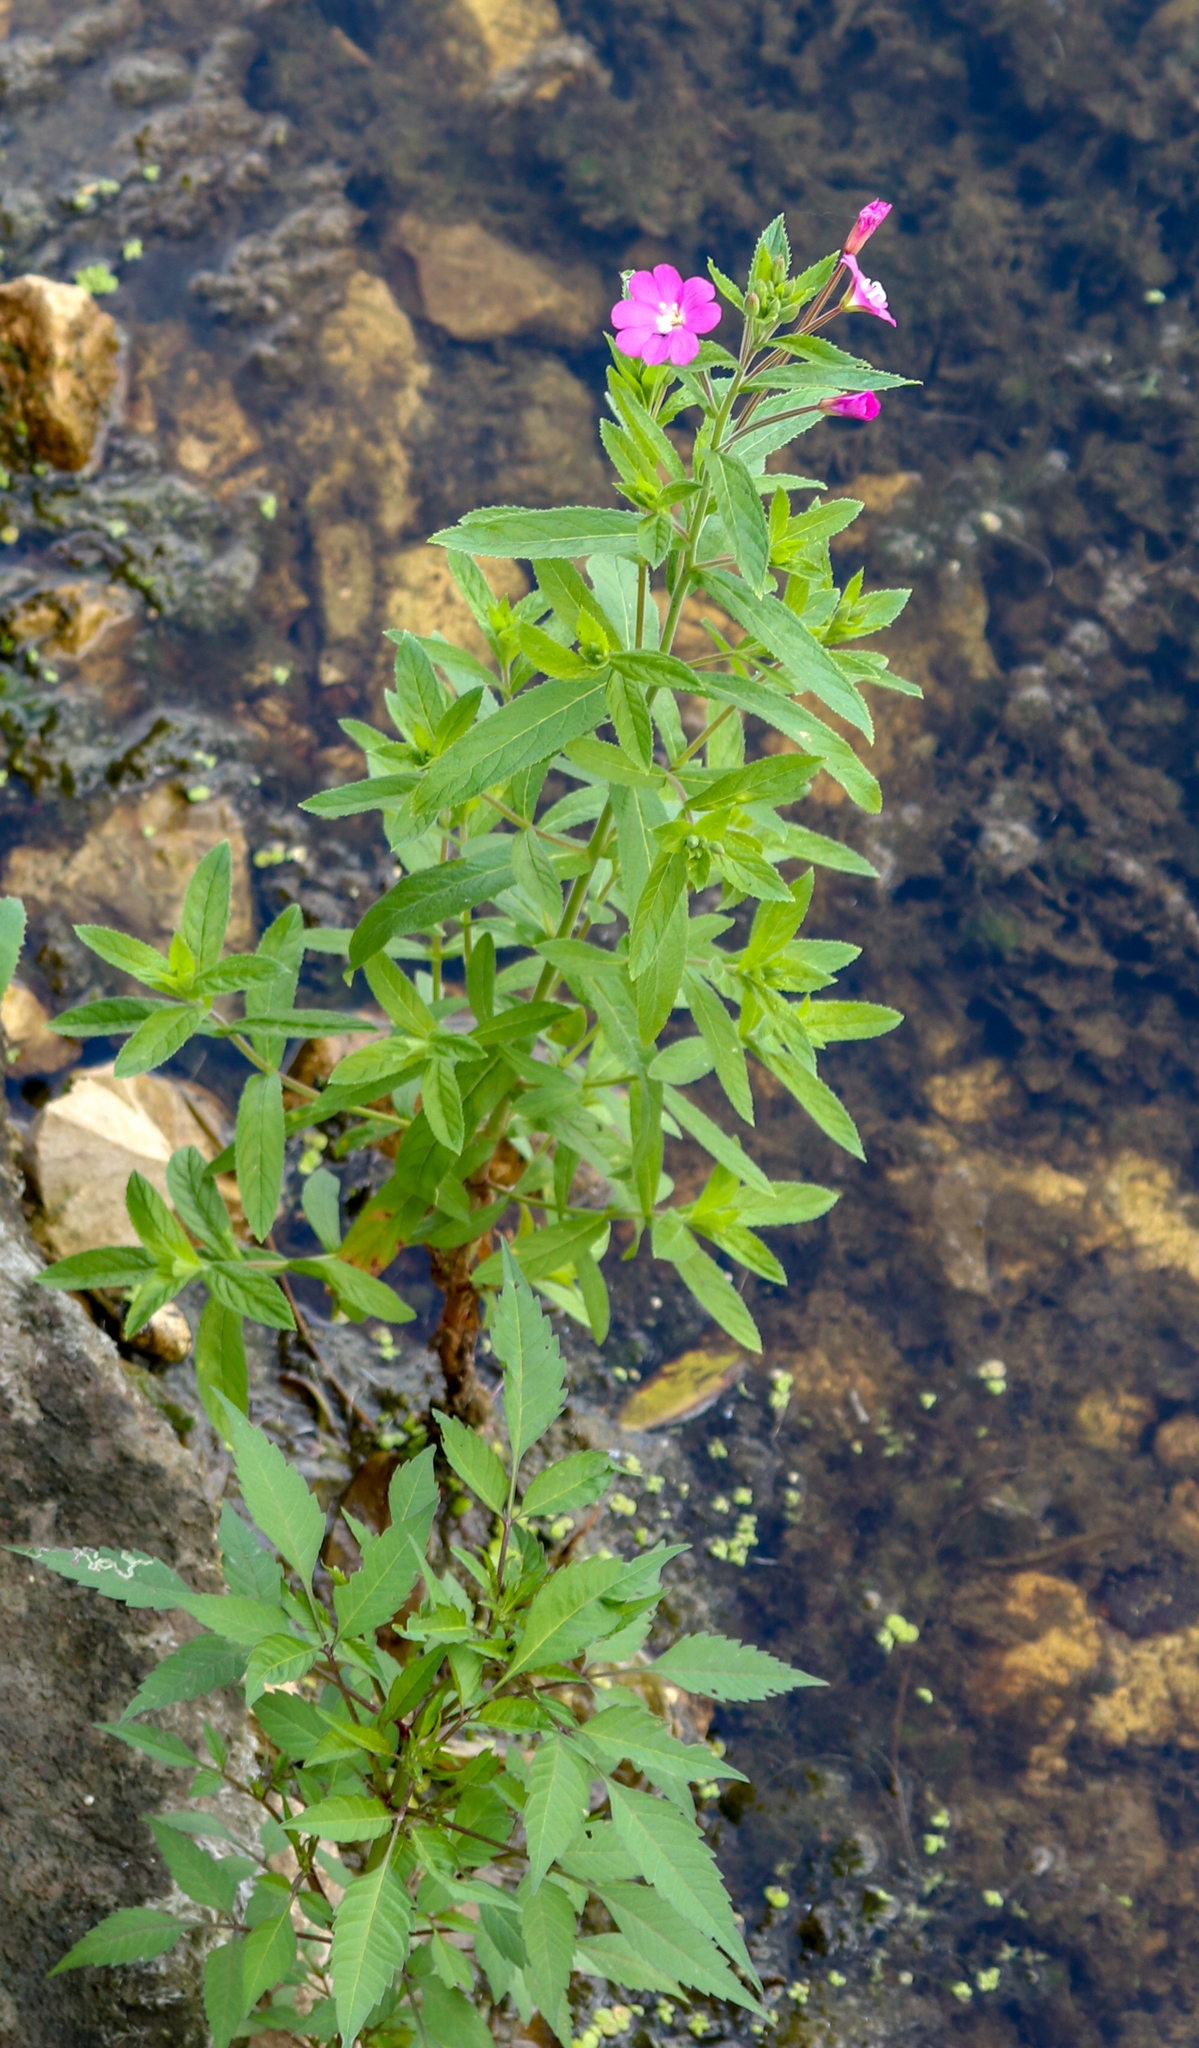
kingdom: Plantae
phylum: Tracheophyta
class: Magnoliopsida
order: Myrtales
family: Onagraceae
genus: Epilobium
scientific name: Epilobium hirsutum
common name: Great willowherb
